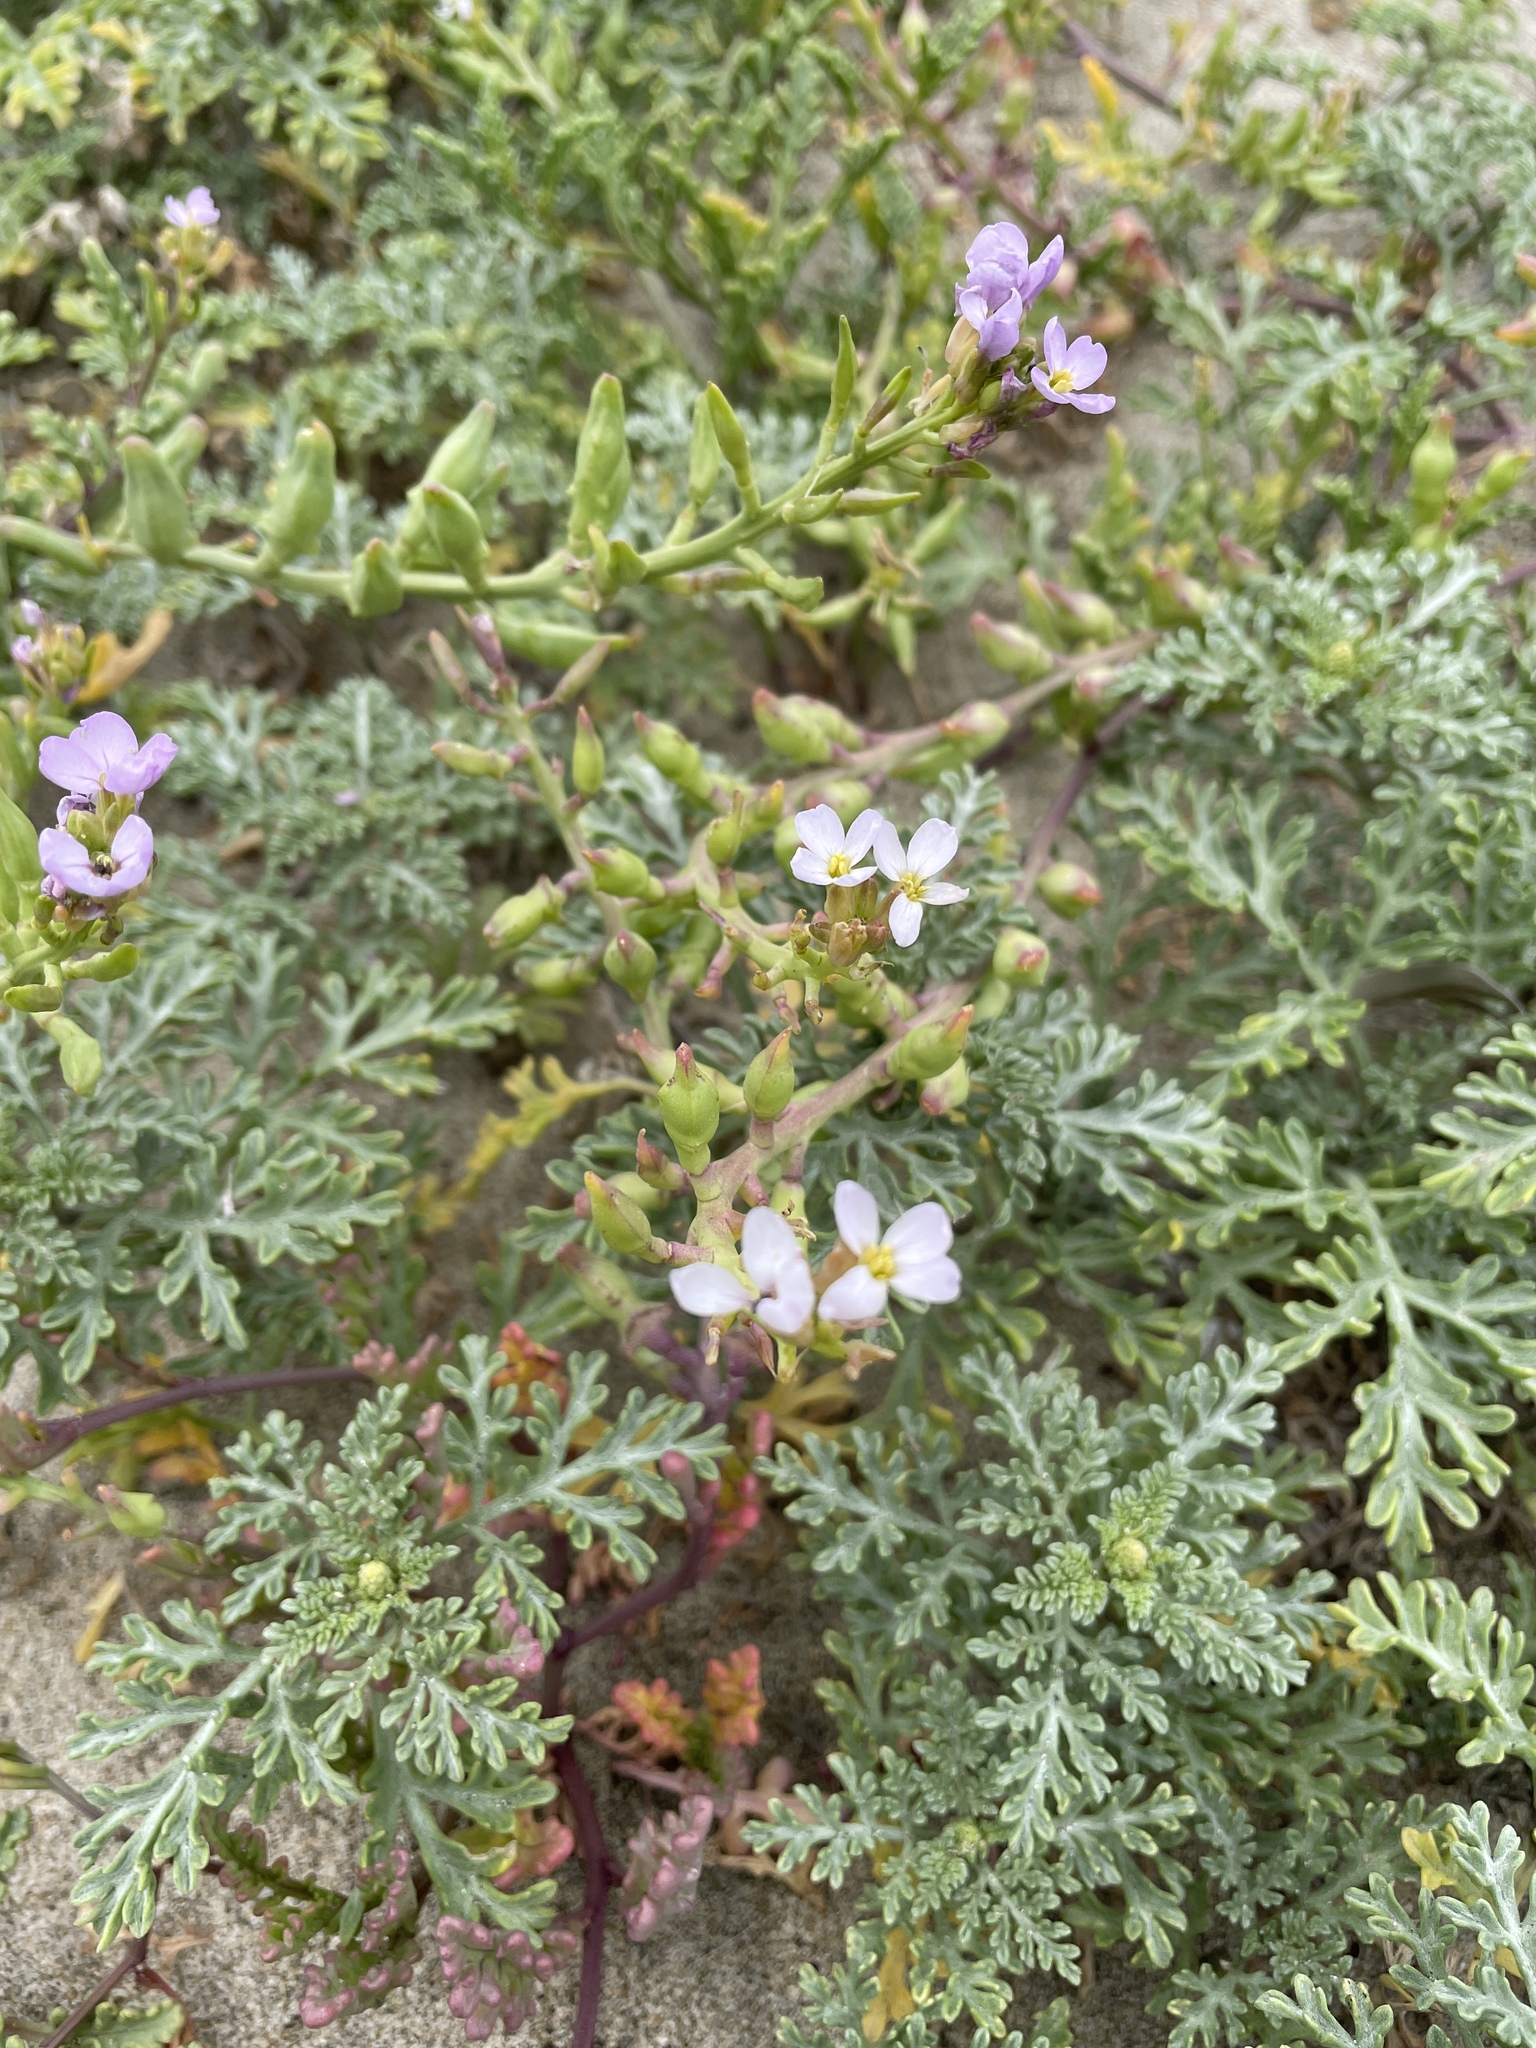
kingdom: Plantae
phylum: Tracheophyta
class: Magnoliopsida
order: Brassicales
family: Brassicaceae
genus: Cakile
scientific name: Cakile maritima
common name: Sea rocket
